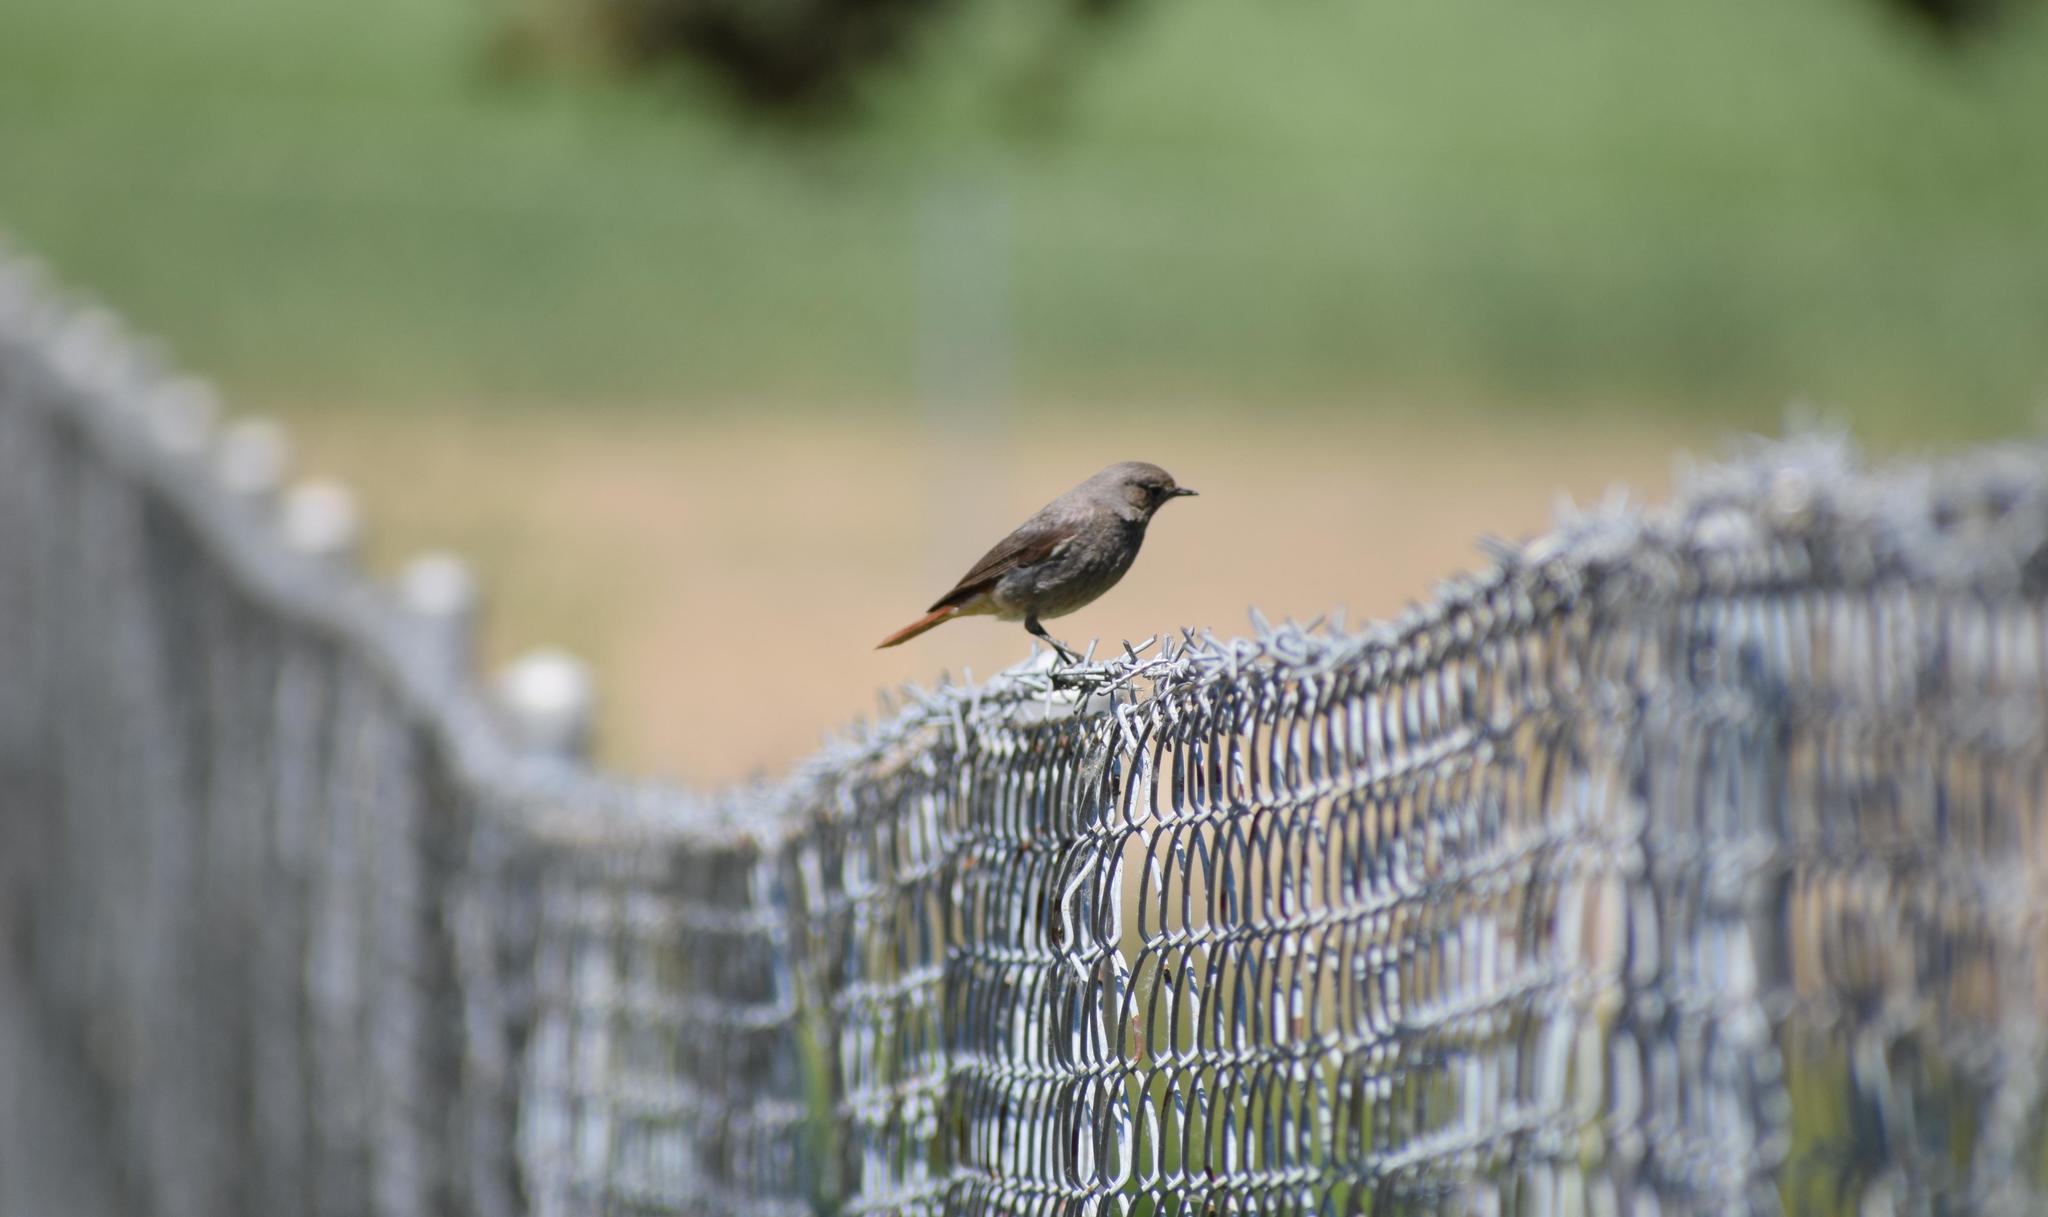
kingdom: Animalia
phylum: Chordata
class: Aves
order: Passeriformes
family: Muscicapidae
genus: Phoenicurus
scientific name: Phoenicurus ochruros
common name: Black redstart
